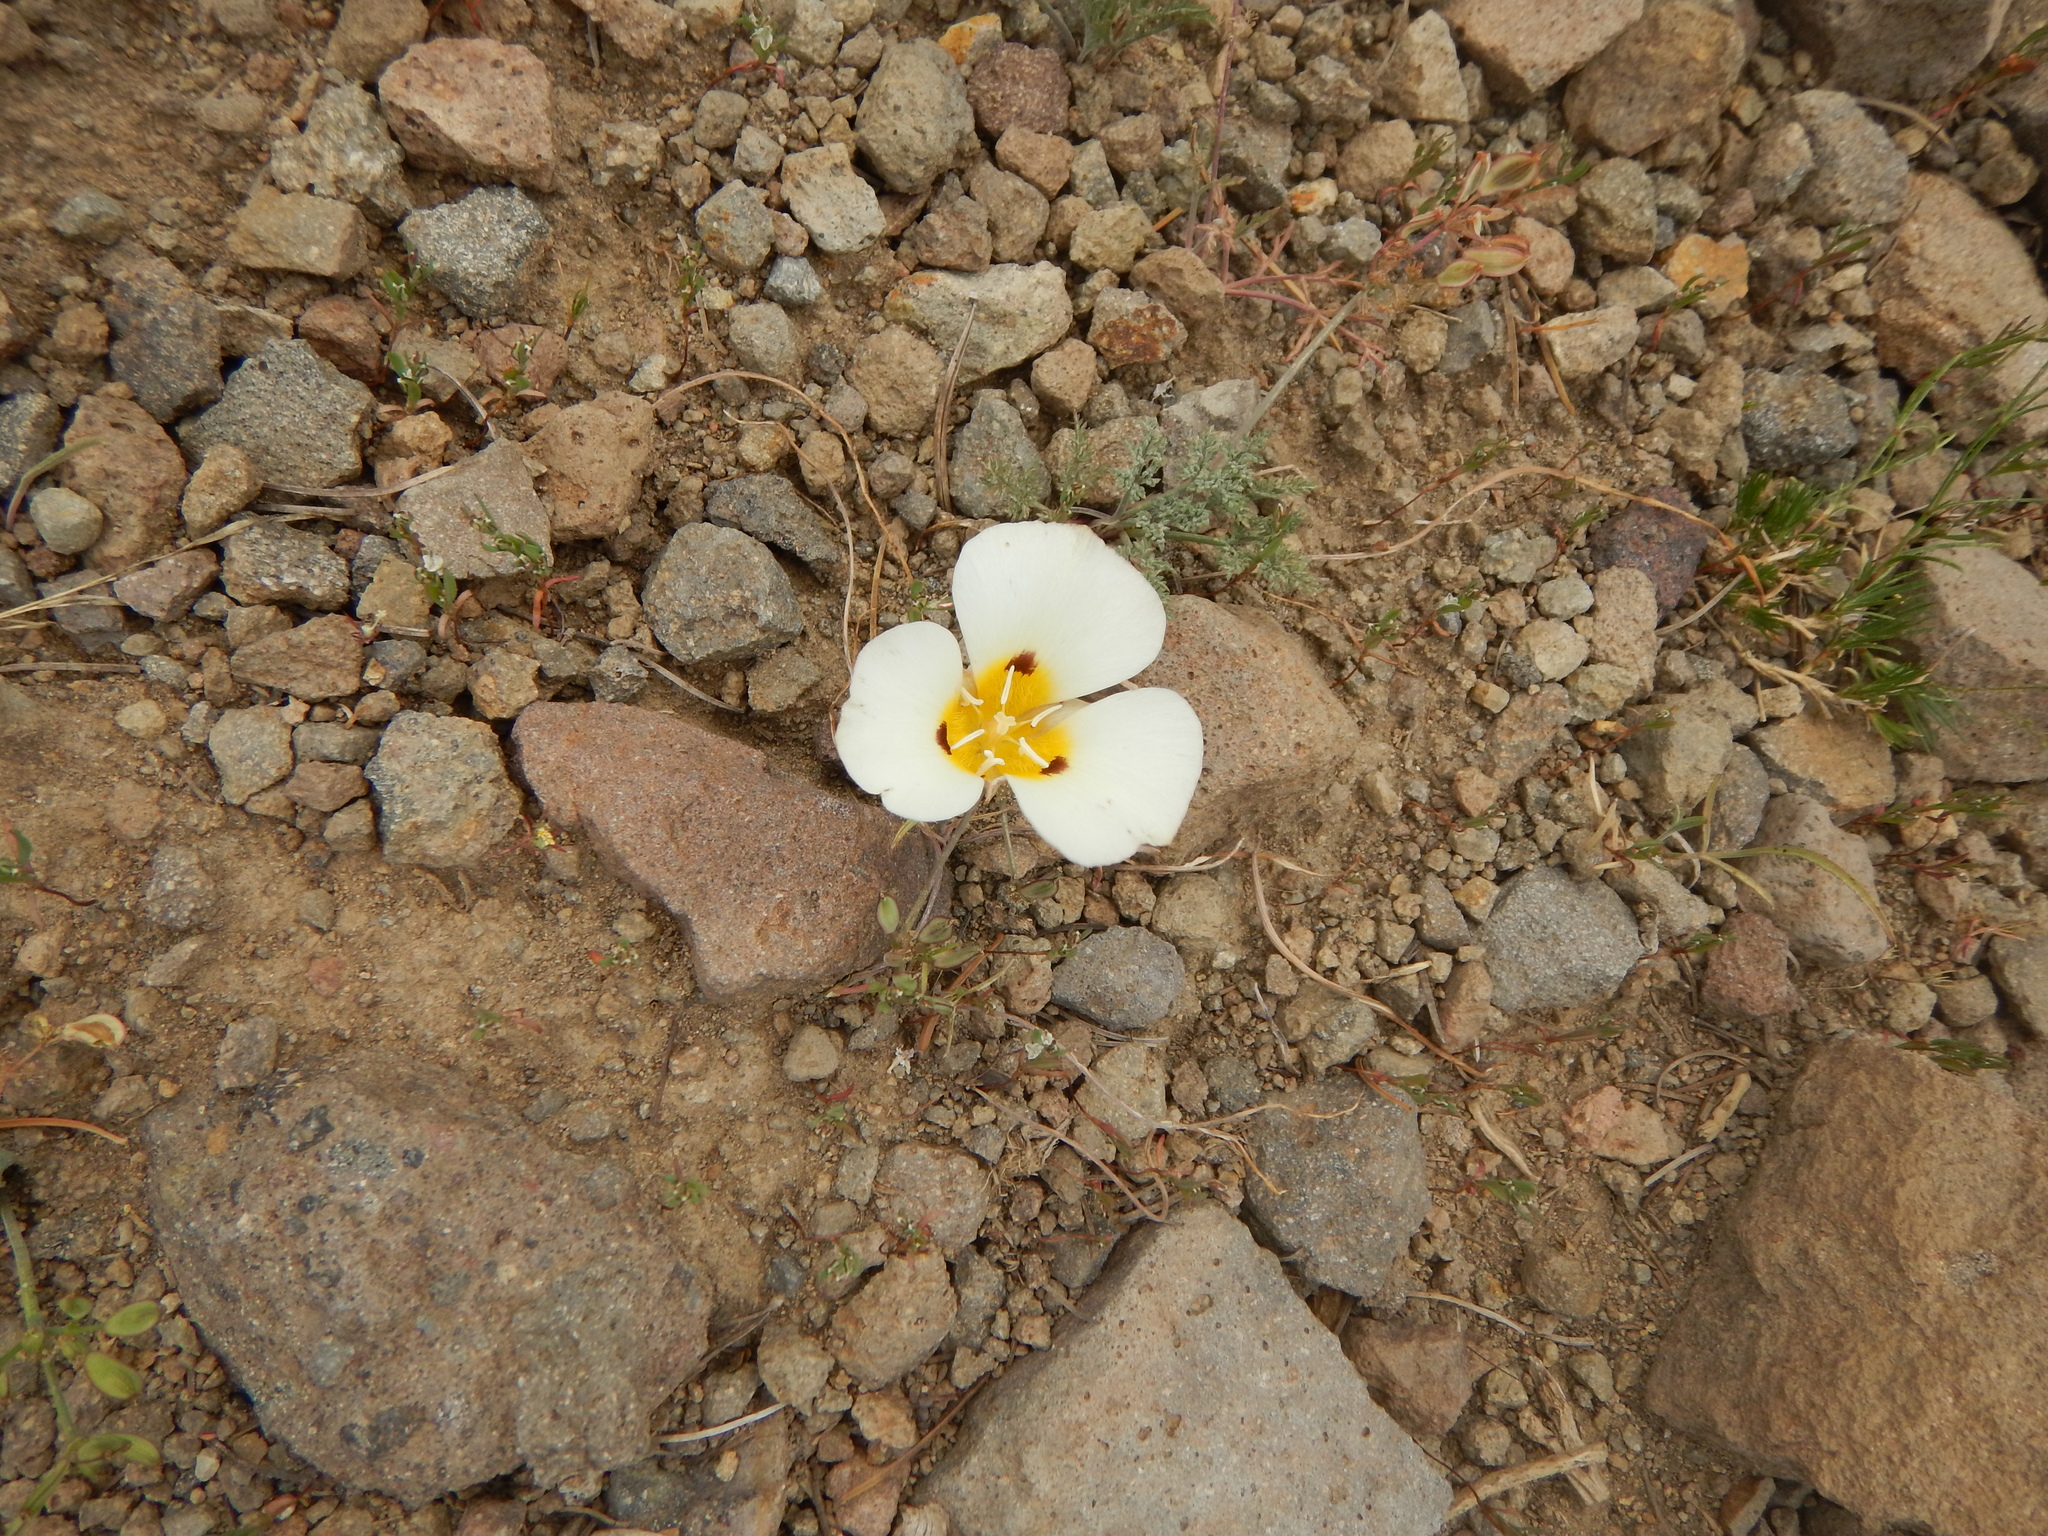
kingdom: Plantae
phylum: Tracheophyta
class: Liliopsida
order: Liliales
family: Liliaceae
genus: Calochortus
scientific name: Calochortus leichtlinii
